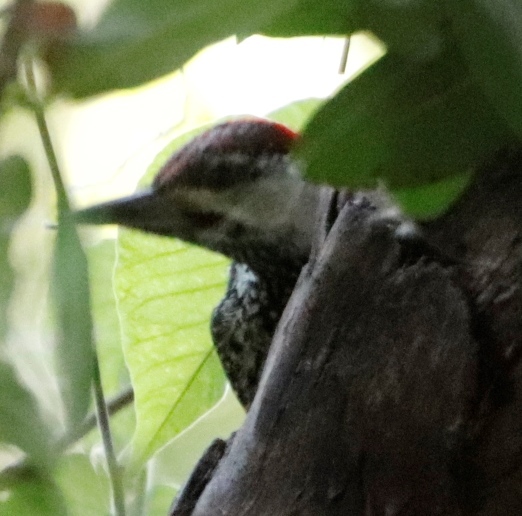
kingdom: Animalia
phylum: Chordata
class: Aves
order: Piciformes
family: Picidae
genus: Campethera
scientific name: Campethera abingoni
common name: Golden-tailed woodpecker
